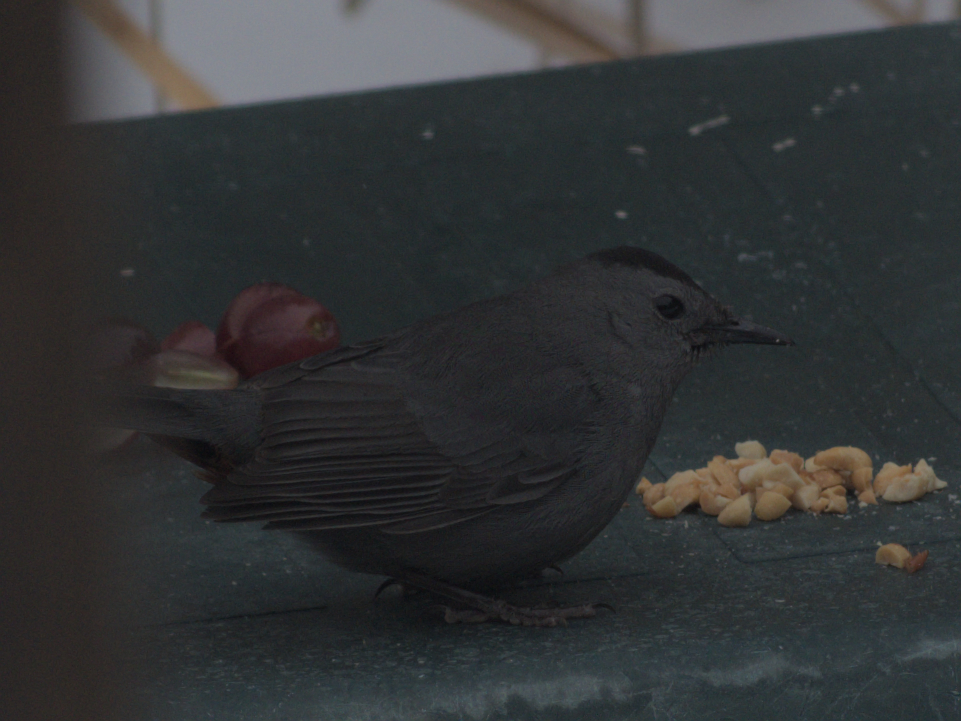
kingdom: Animalia
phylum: Chordata
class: Aves
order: Passeriformes
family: Mimidae
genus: Dumetella
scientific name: Dumetella carolinensis
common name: Gray catbird
